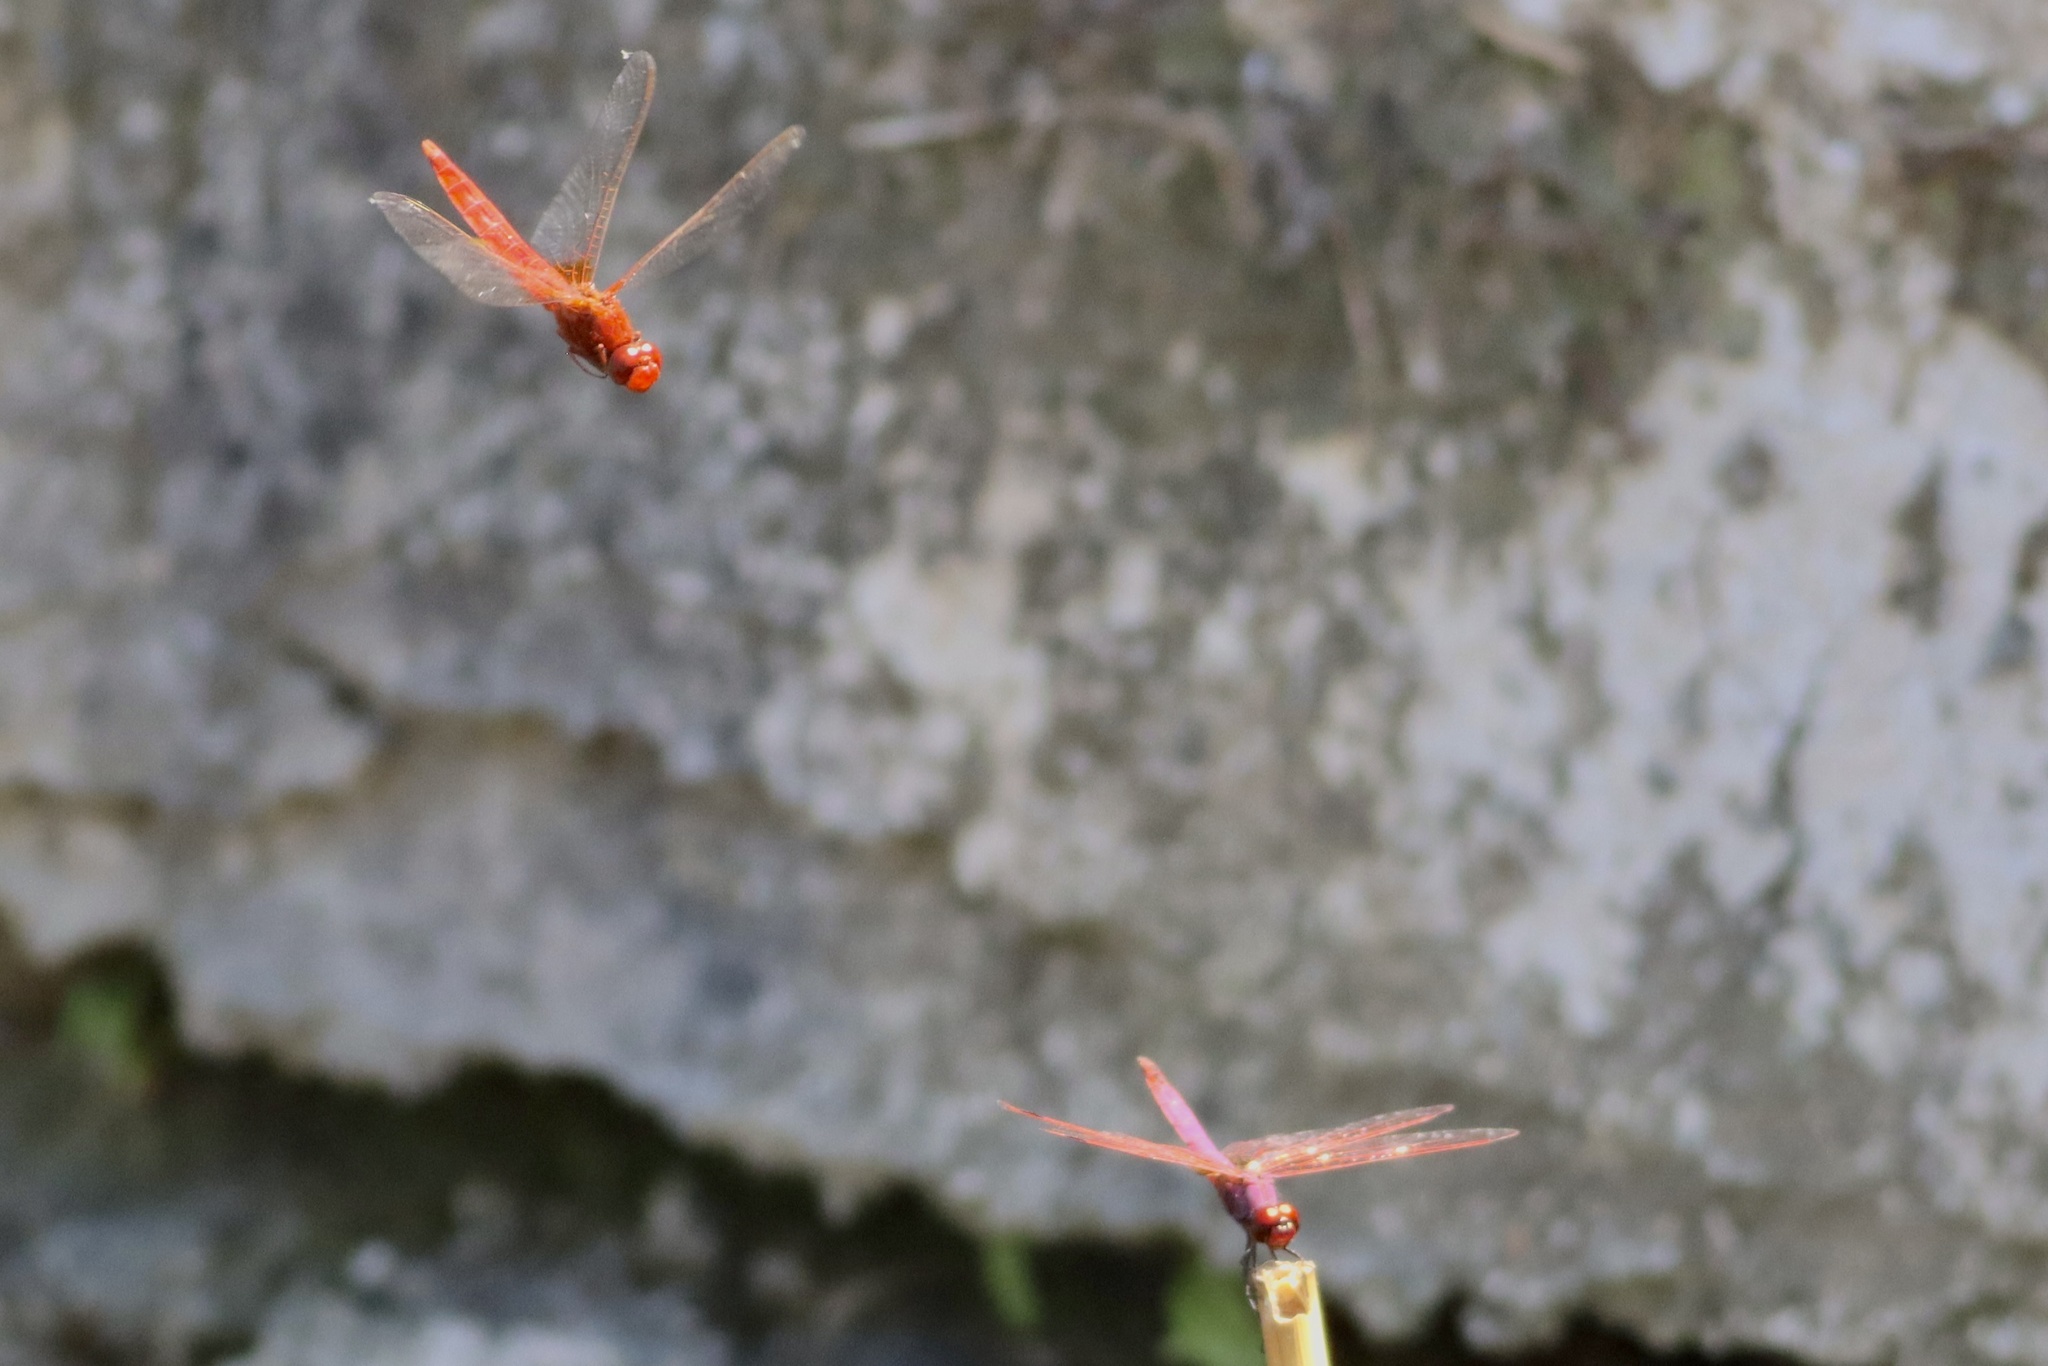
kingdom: Animalia
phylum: Arthropoda
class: Insecta
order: Odonata
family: Libellulidae
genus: Crocothemis
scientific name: Crocothemis erythraea
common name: Scarlet dragonfly
